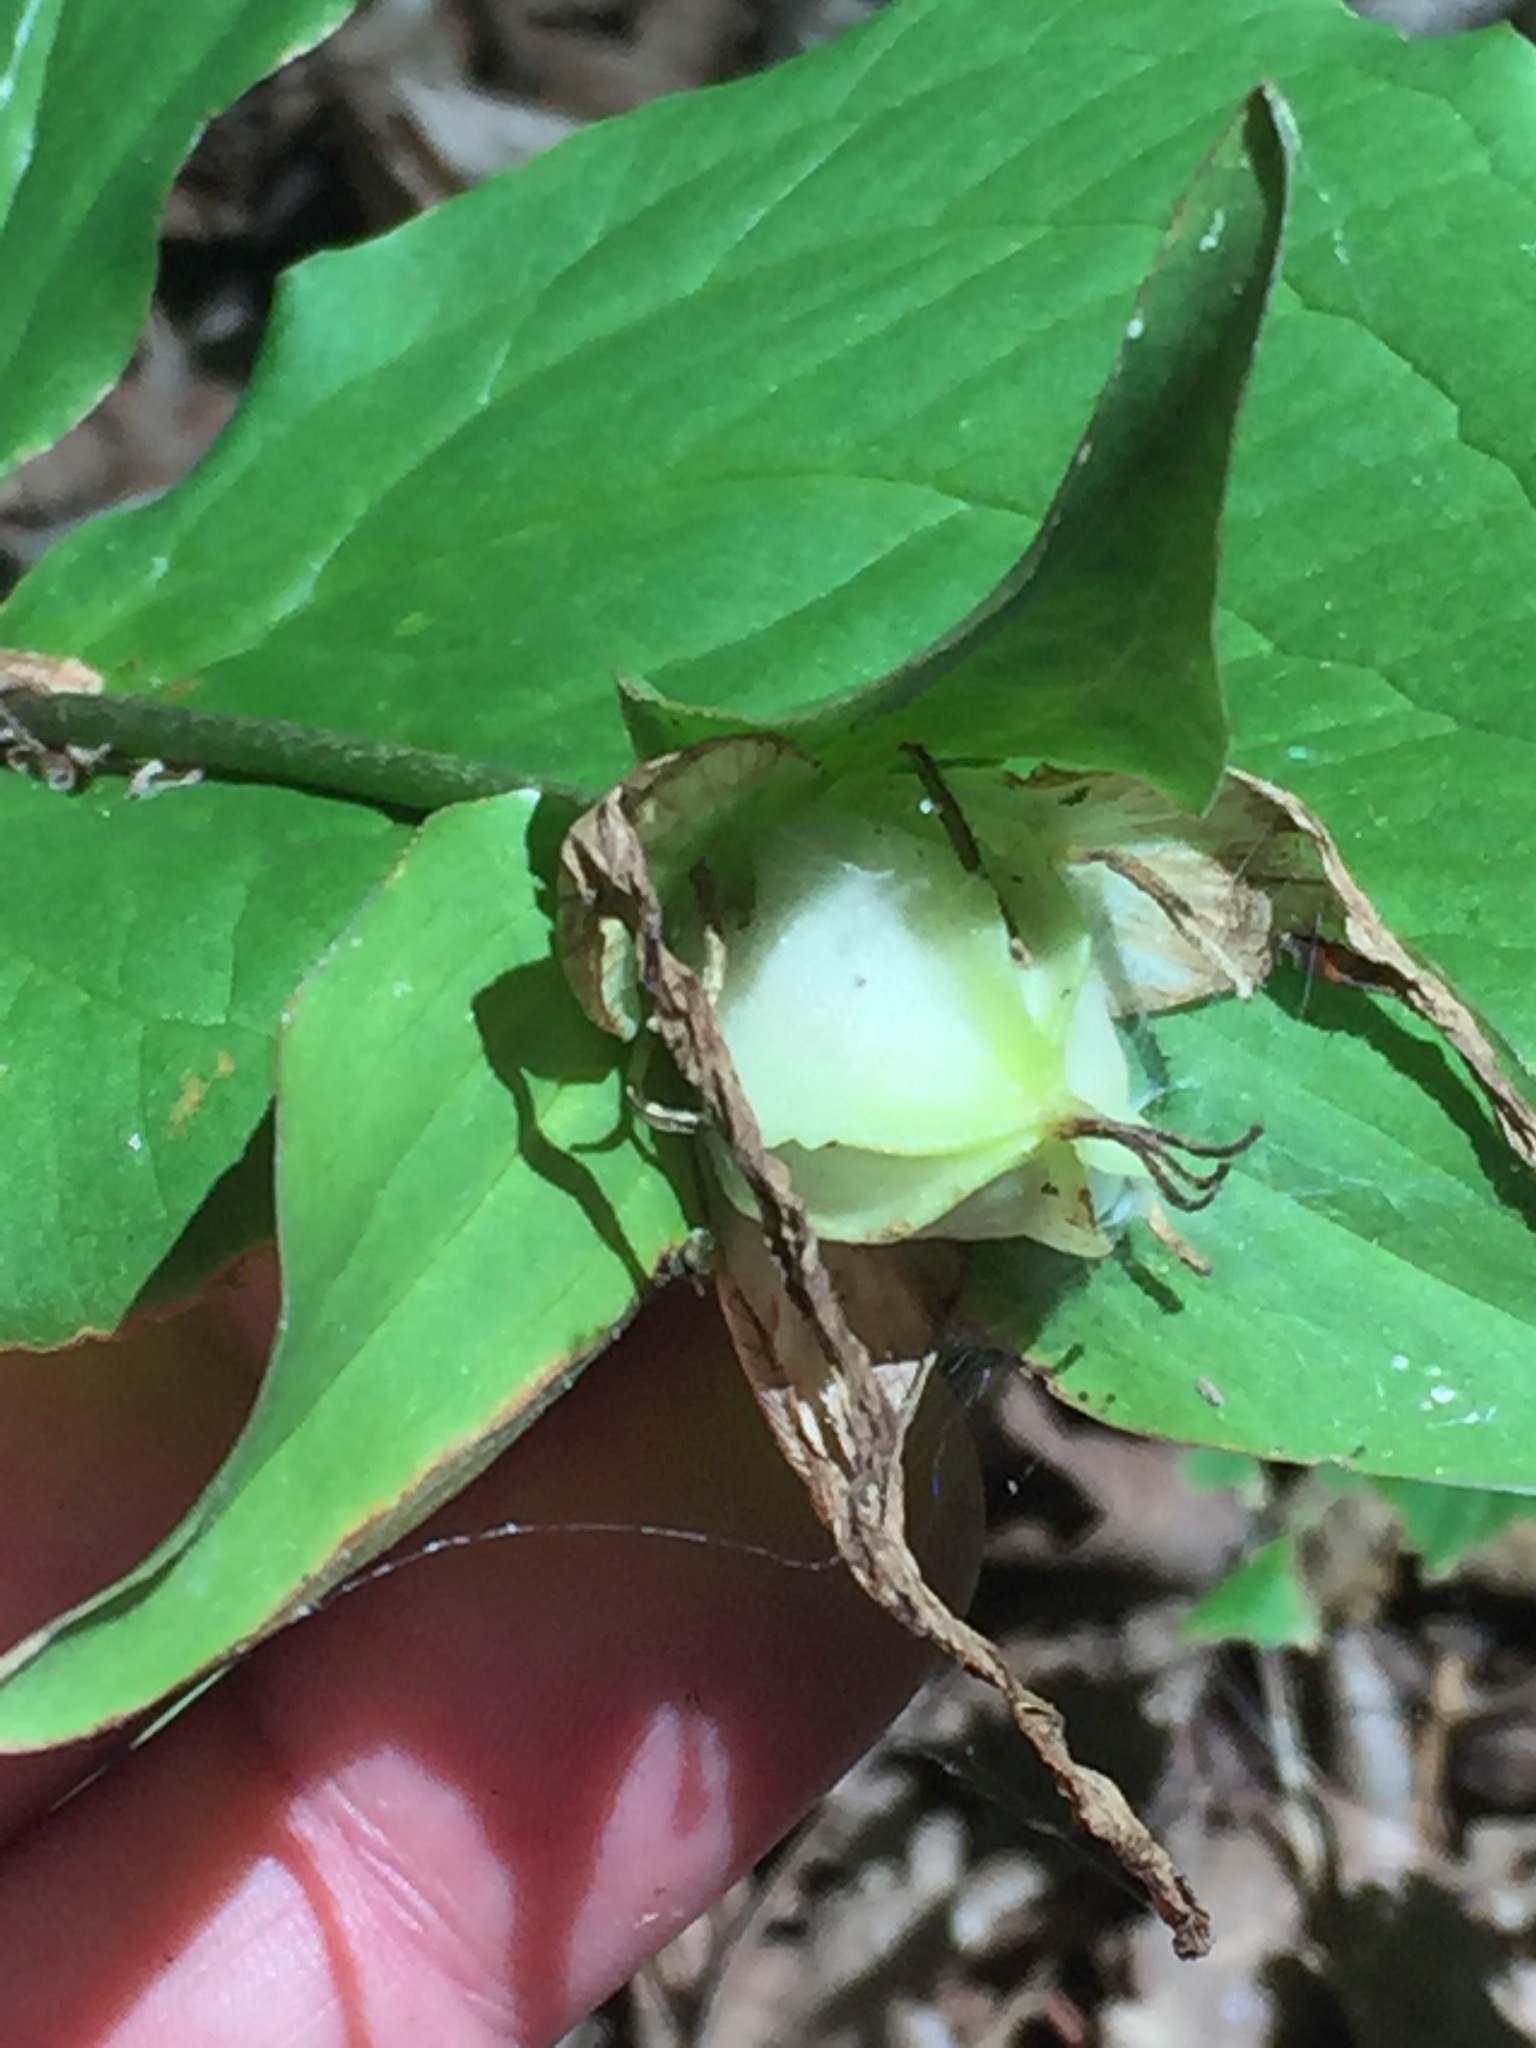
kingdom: Plantae
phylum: Tracheophyta
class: Liliopsida
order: Liliales
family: Melanthiaceae
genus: Trillium
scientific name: Trillium grandiflorum
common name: Great white trillium
